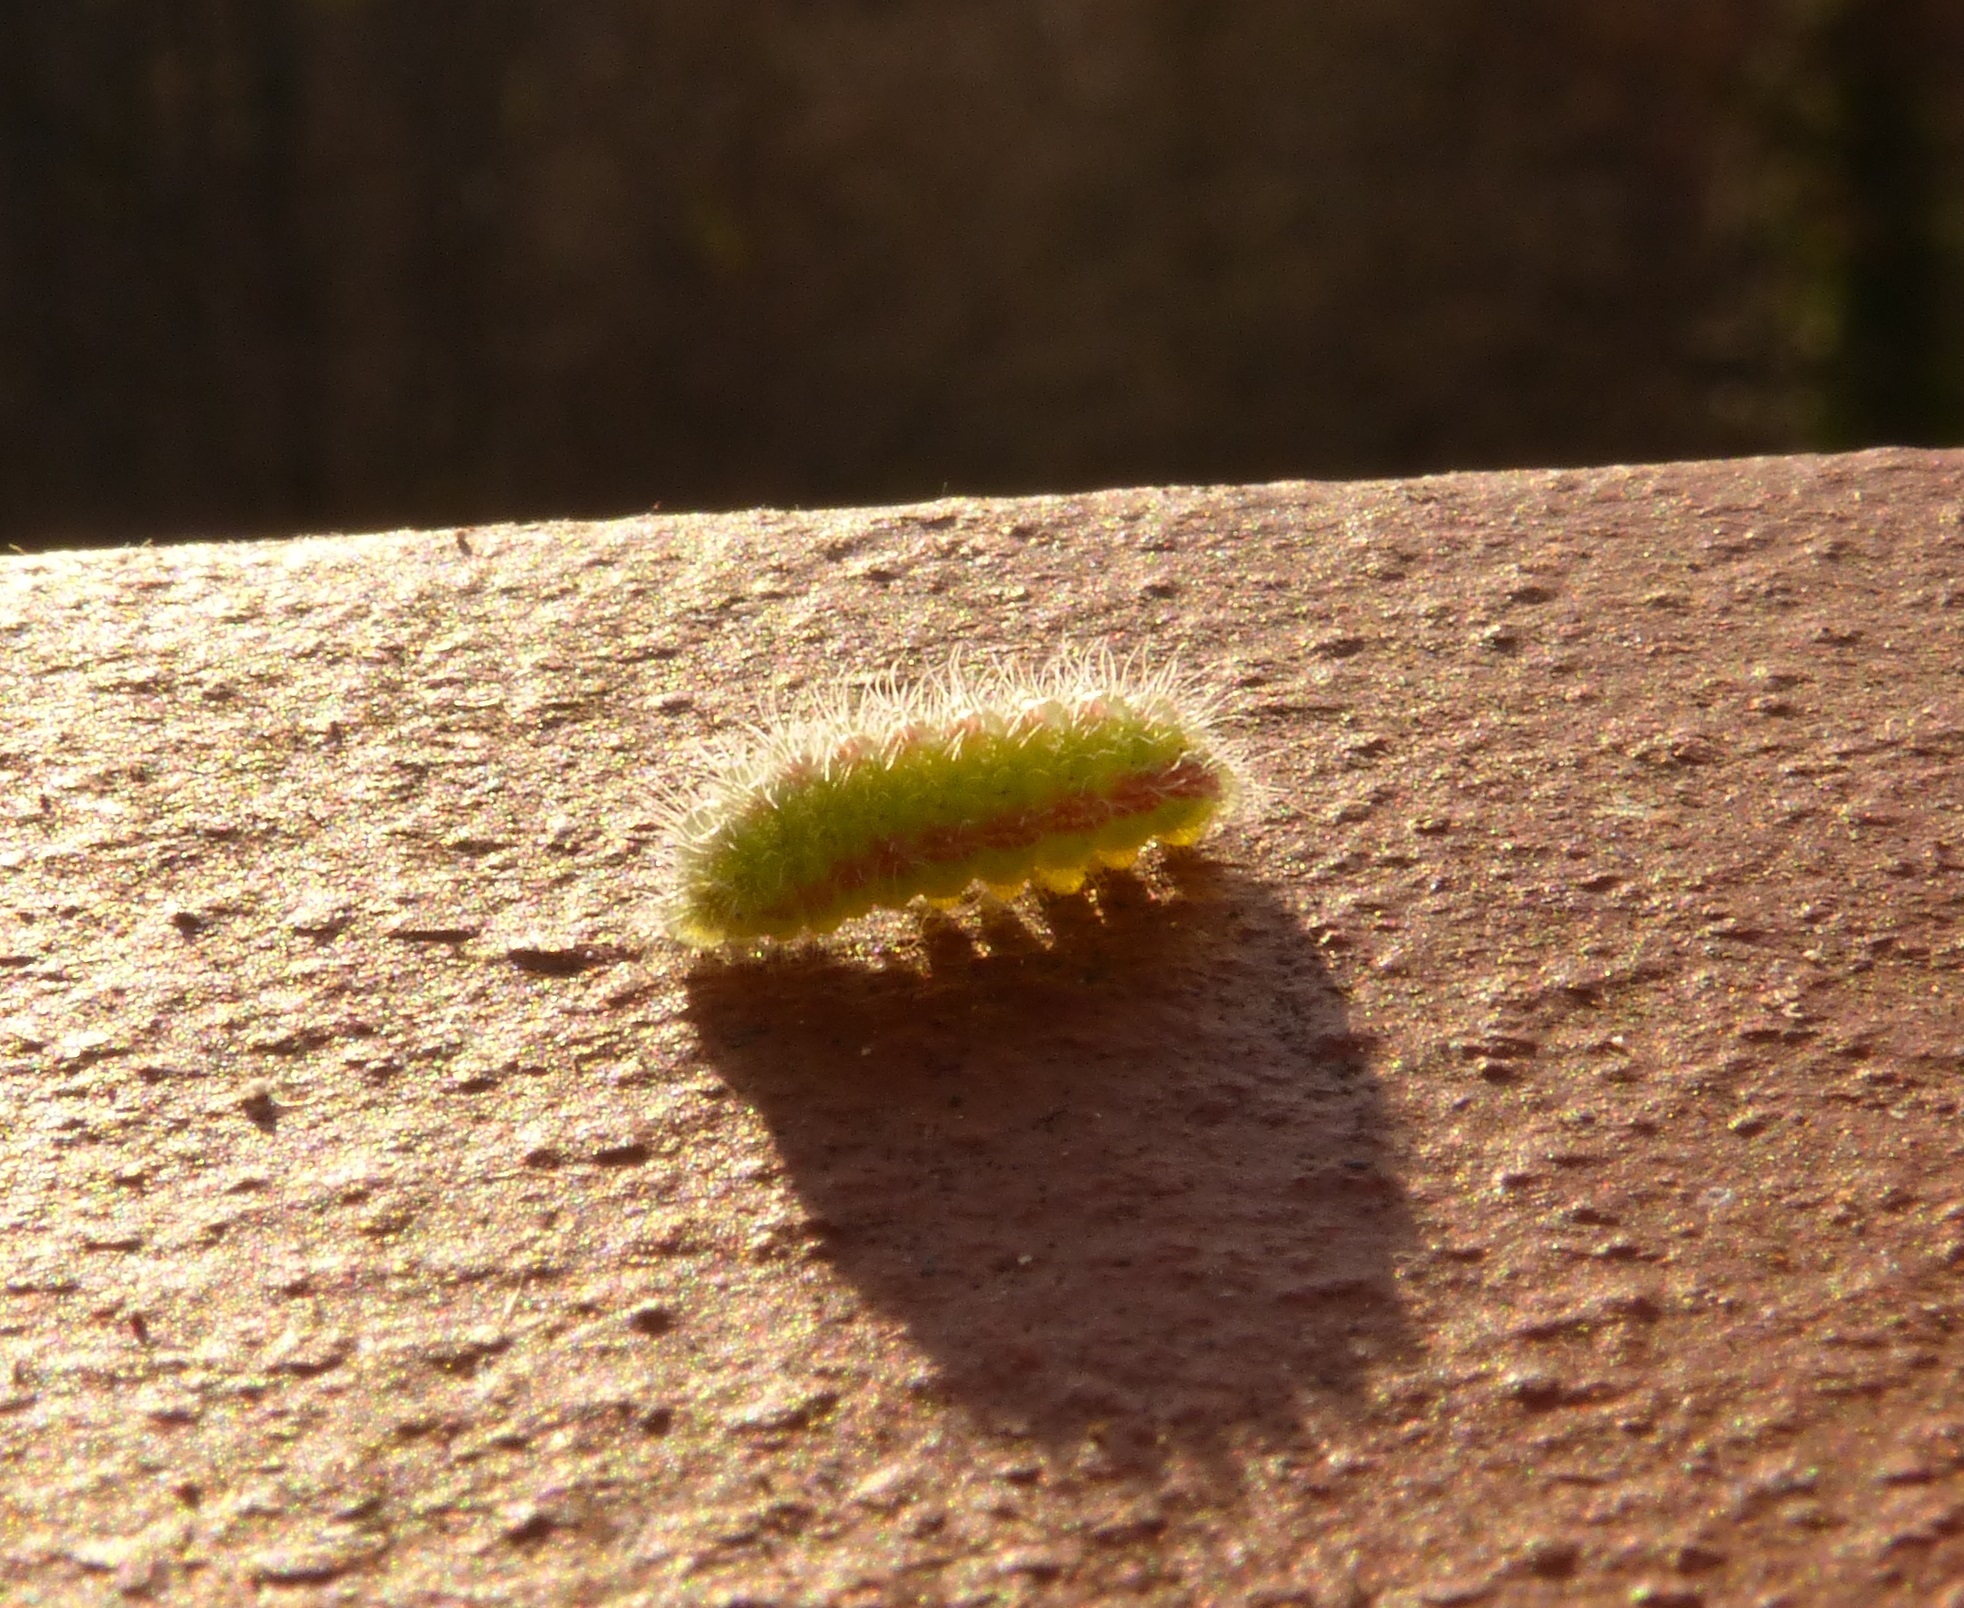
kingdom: Animalia
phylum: Arthropoda
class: Insecta
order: Lepidoptera
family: Lycaenidae
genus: Cacyreus
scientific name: Cacyreus marshalli
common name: Geranium bronze
